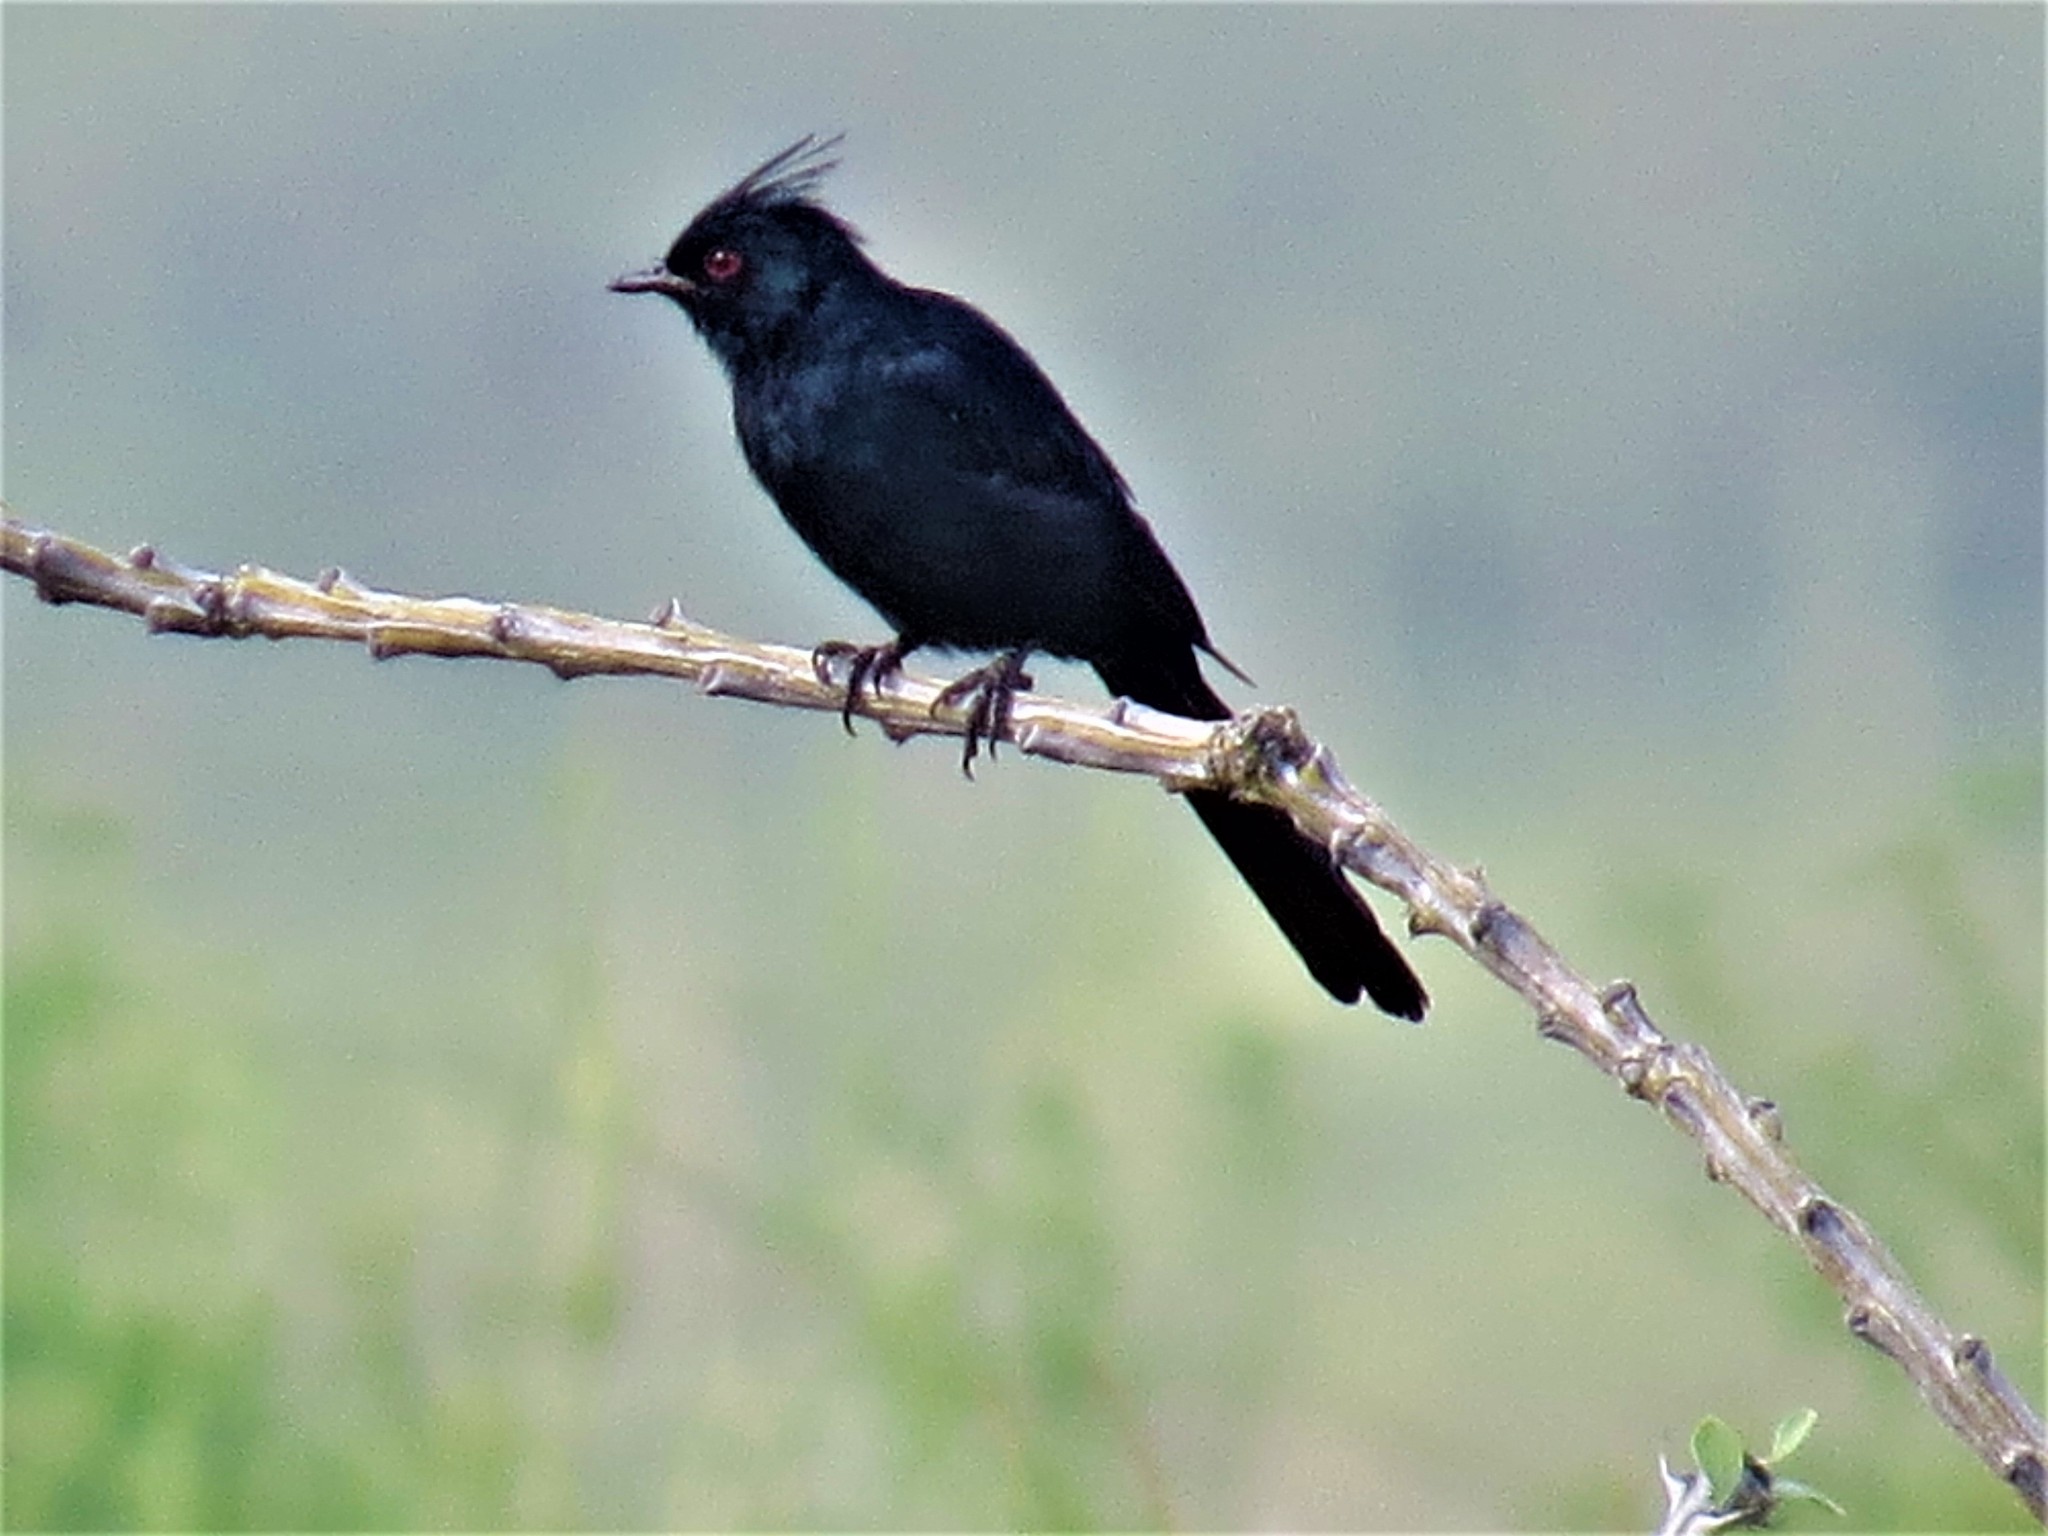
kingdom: Animalia
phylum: Chordata
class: Aves
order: Passeriformes
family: Ptilogonatidae
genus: Phainopepla
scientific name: Phainopepla nitens
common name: Phainopepla
